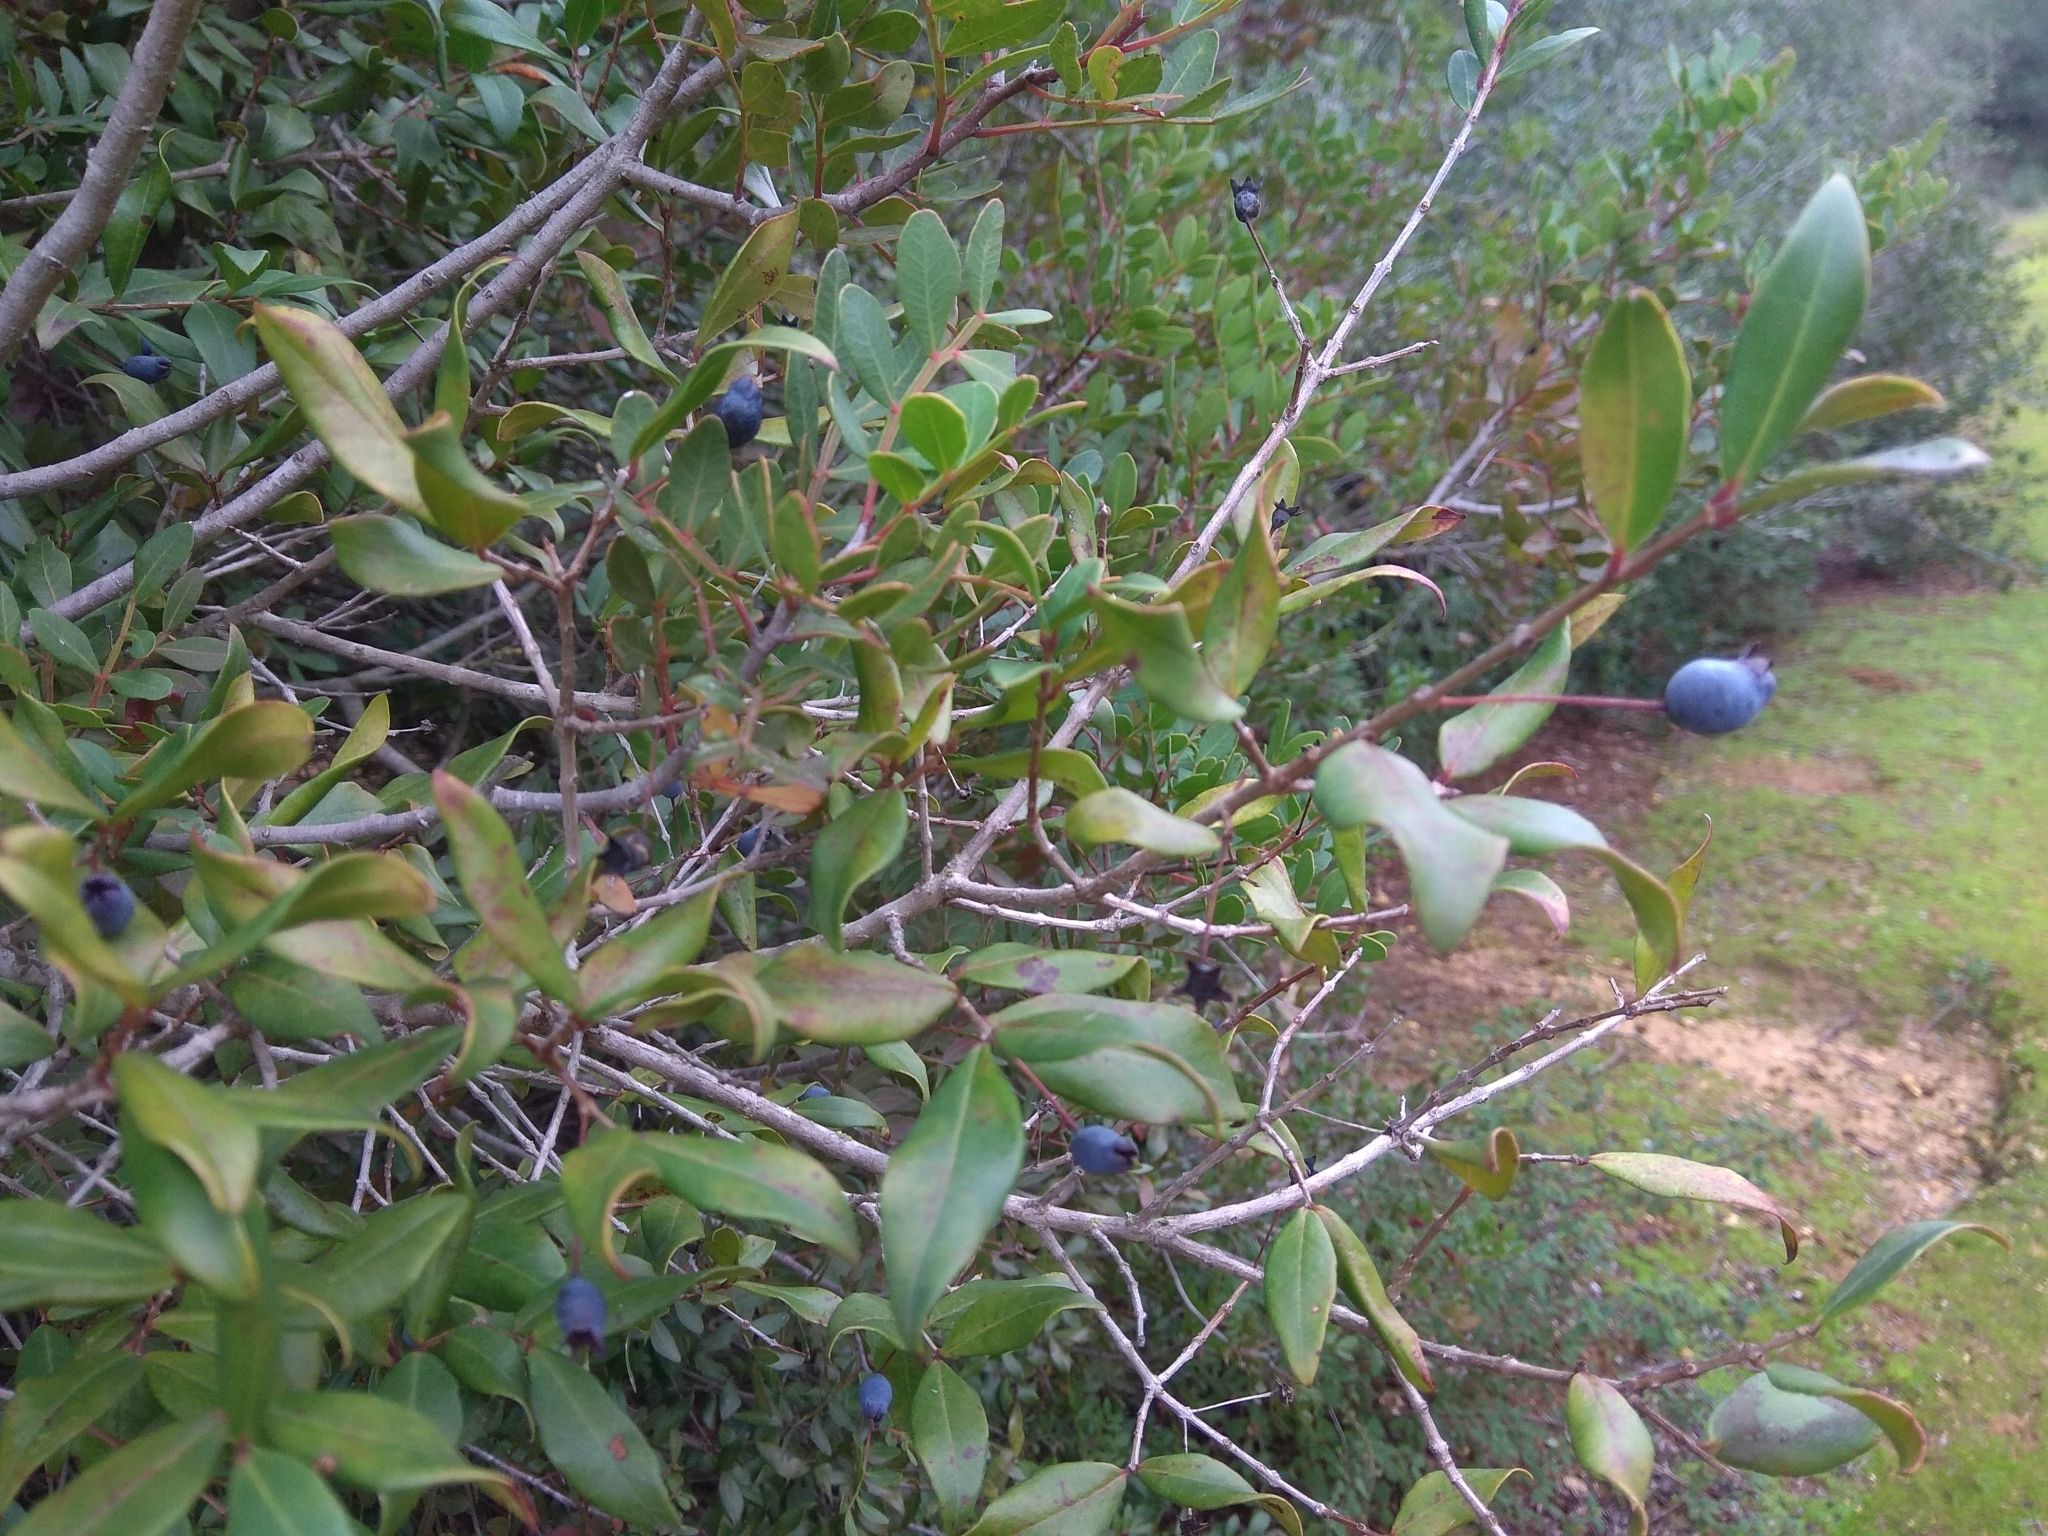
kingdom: Plantae
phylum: Tracheophyta
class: Magnoliopsida
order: Myrtales
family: Myrtaceae
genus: Myrtus
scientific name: Myrtus communis
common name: Myrtle
